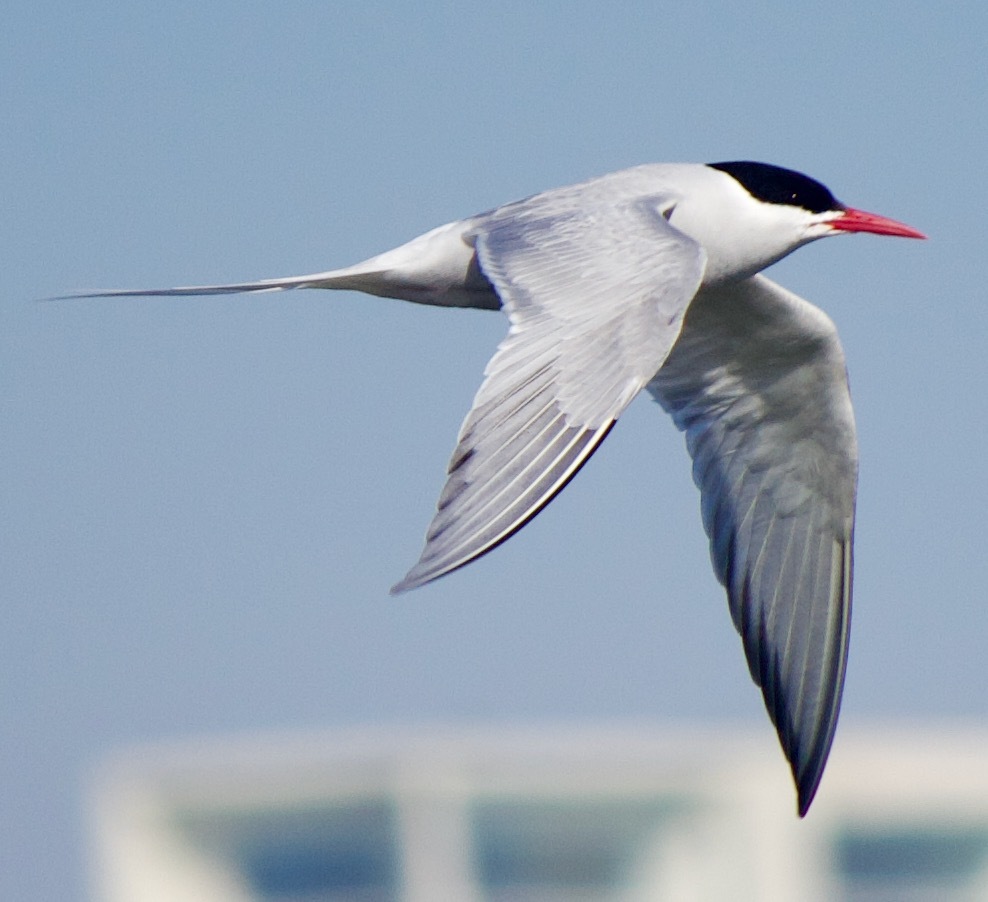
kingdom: Animalia
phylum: Chordata
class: Aves
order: Charadriiformes
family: Laridae
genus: Sterna
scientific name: Sterna hirundinacea
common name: South american tern
